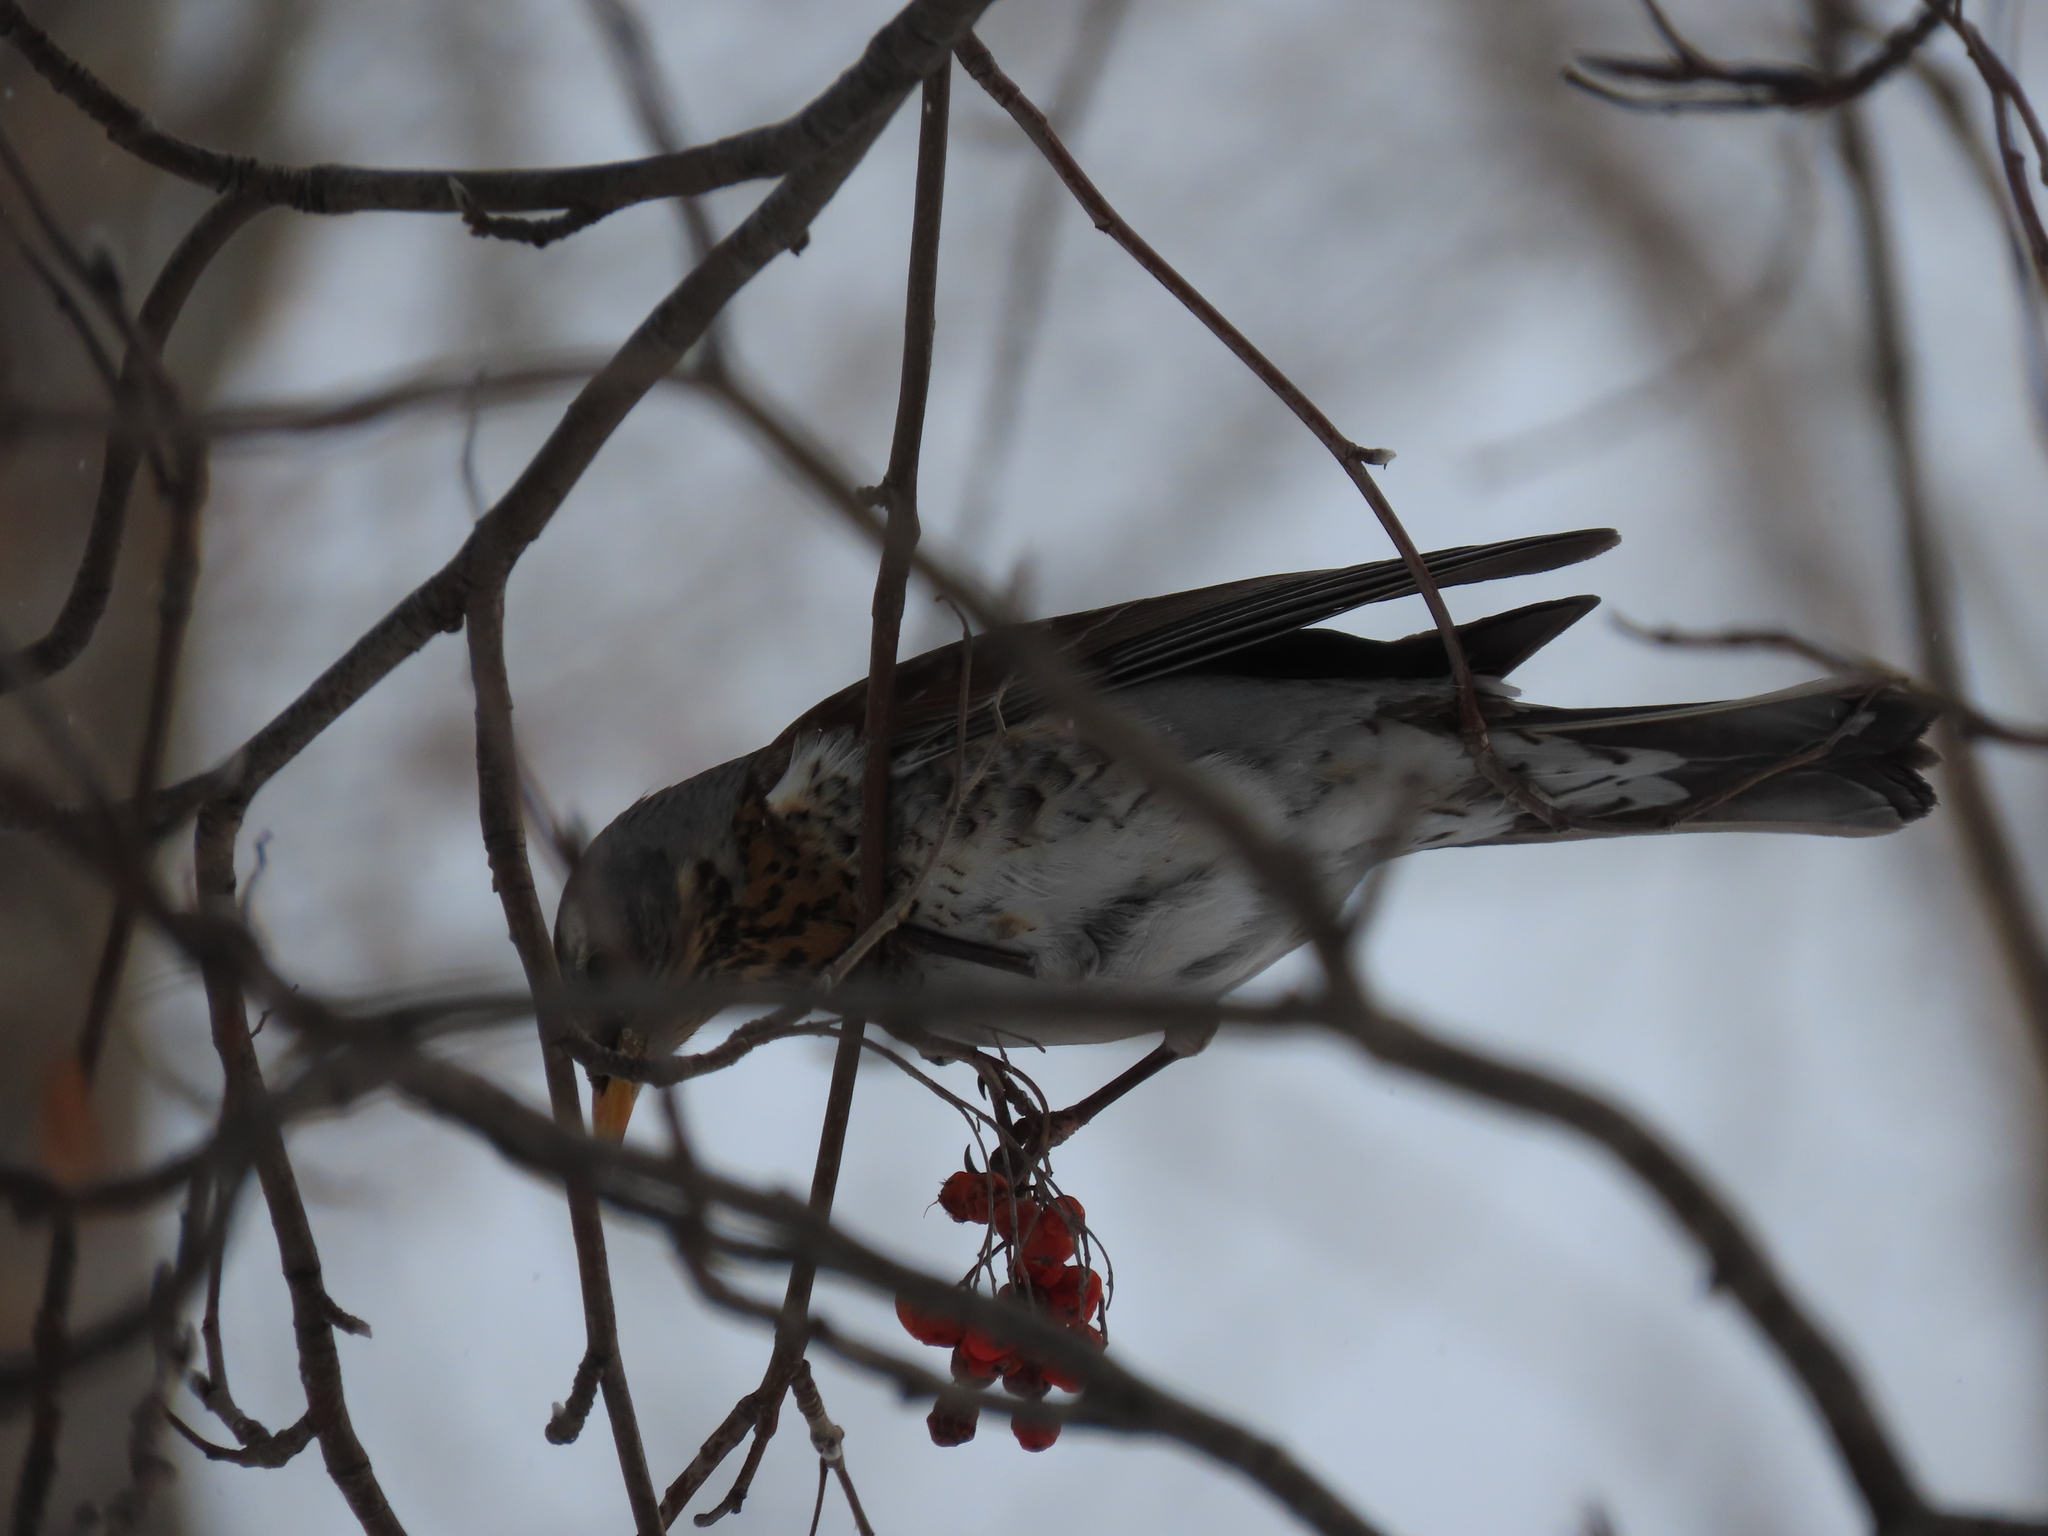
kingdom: Animalia
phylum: Chordata
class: Aves
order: Passeriformes
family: Turdidae
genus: Turdus
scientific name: Turdus pilaris
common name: Fieldfare
